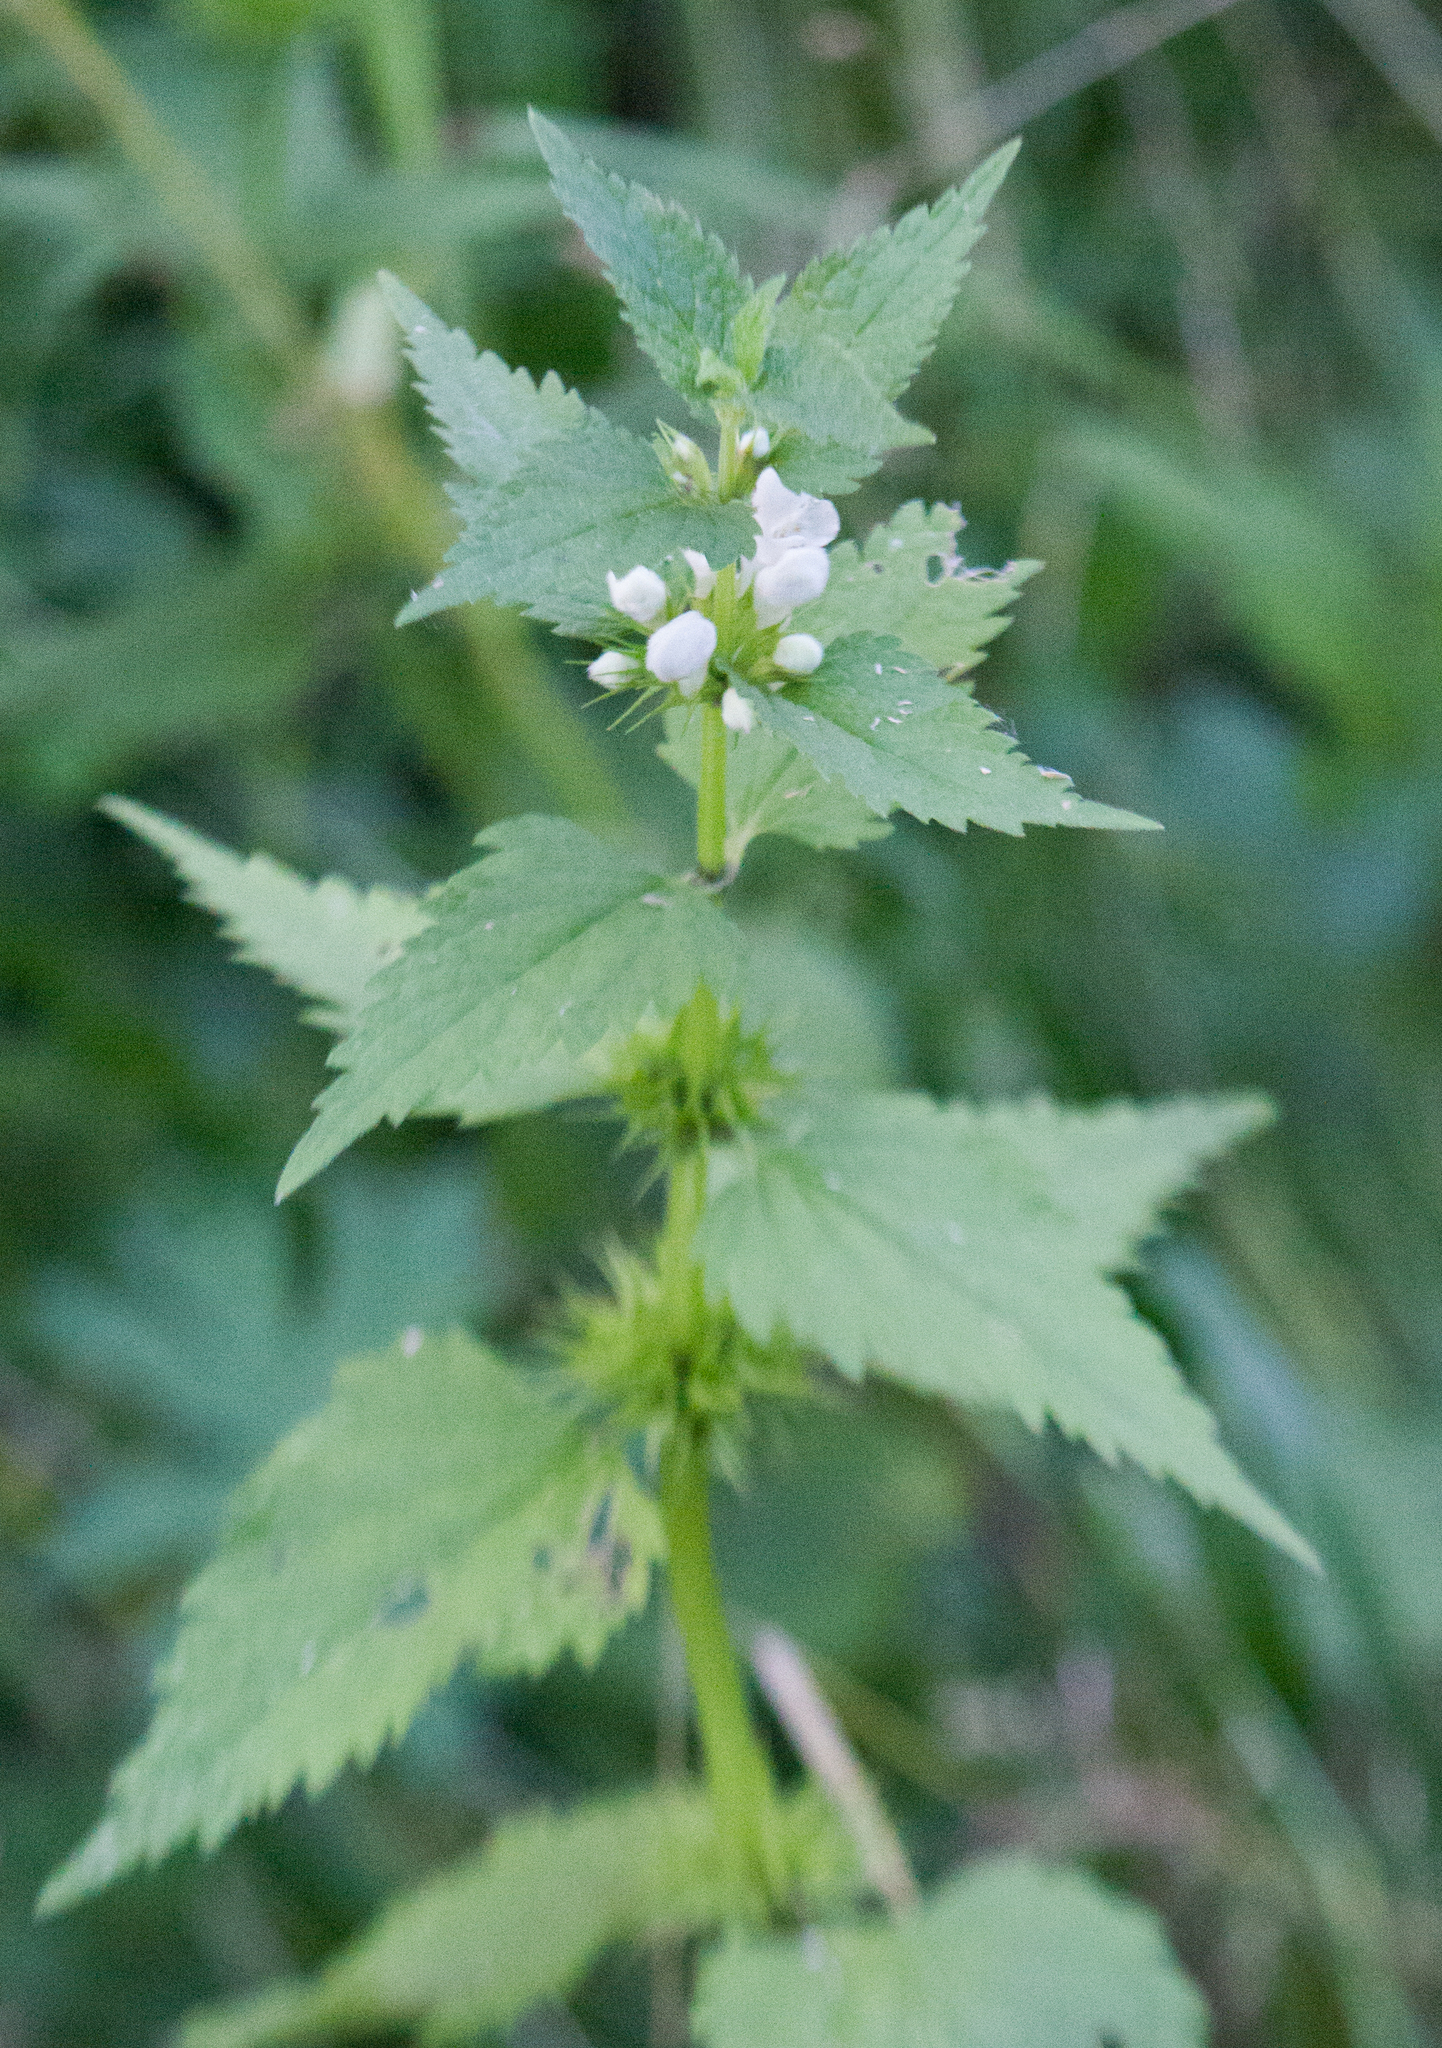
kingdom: Plantae
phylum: Tracheophyta
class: Magnoliopsida
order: Lamiales
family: Lamiaceae
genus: Lamium
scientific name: Lamium album
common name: White dead-nettle
